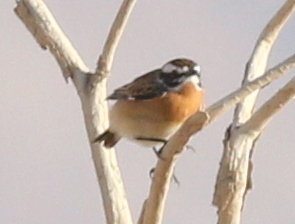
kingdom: Animalia
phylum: Chordata
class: Aves
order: Passeriformes
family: Muscicapidae
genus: Saxicola
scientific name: Saxicola rubetra
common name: Whinchat
